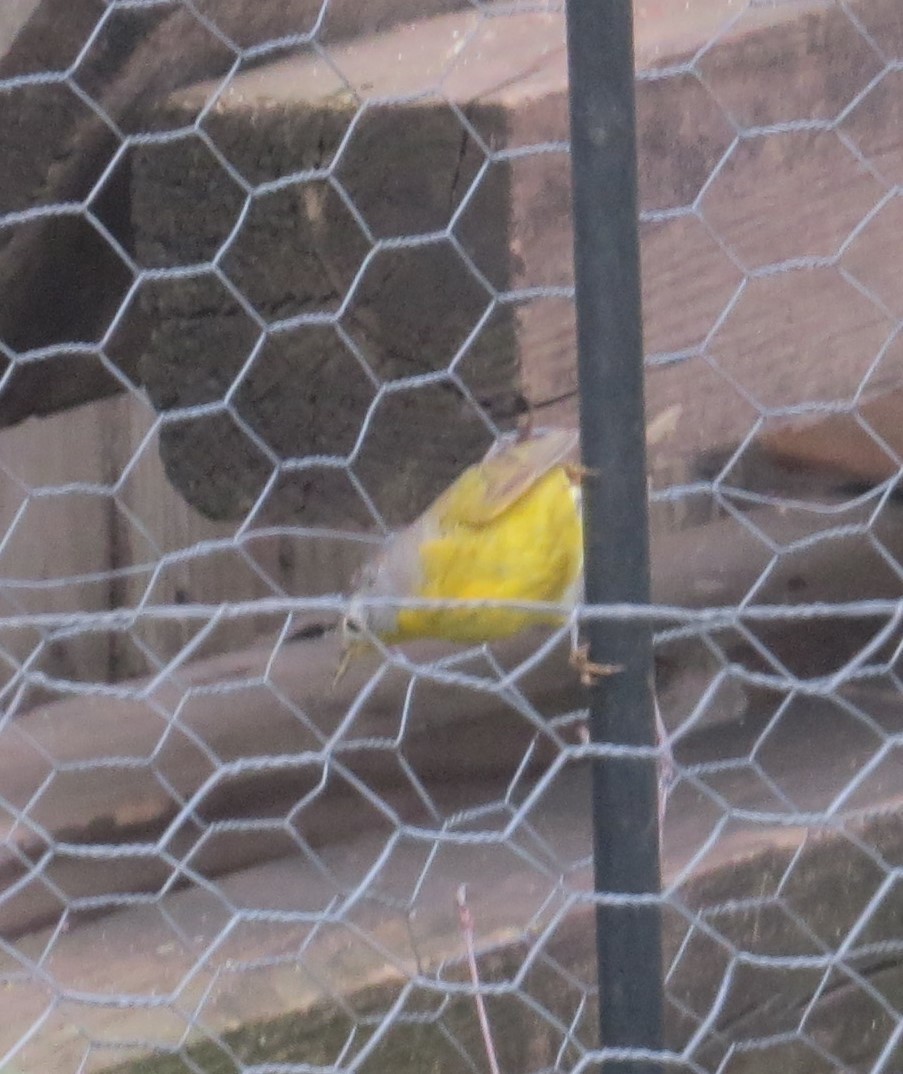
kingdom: Animalia
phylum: Chordata
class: Aves
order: Passeriformes
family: Parulidae
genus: Leiothlypis
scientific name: Leiothlypis ruficapilla
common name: Nashville warbler
